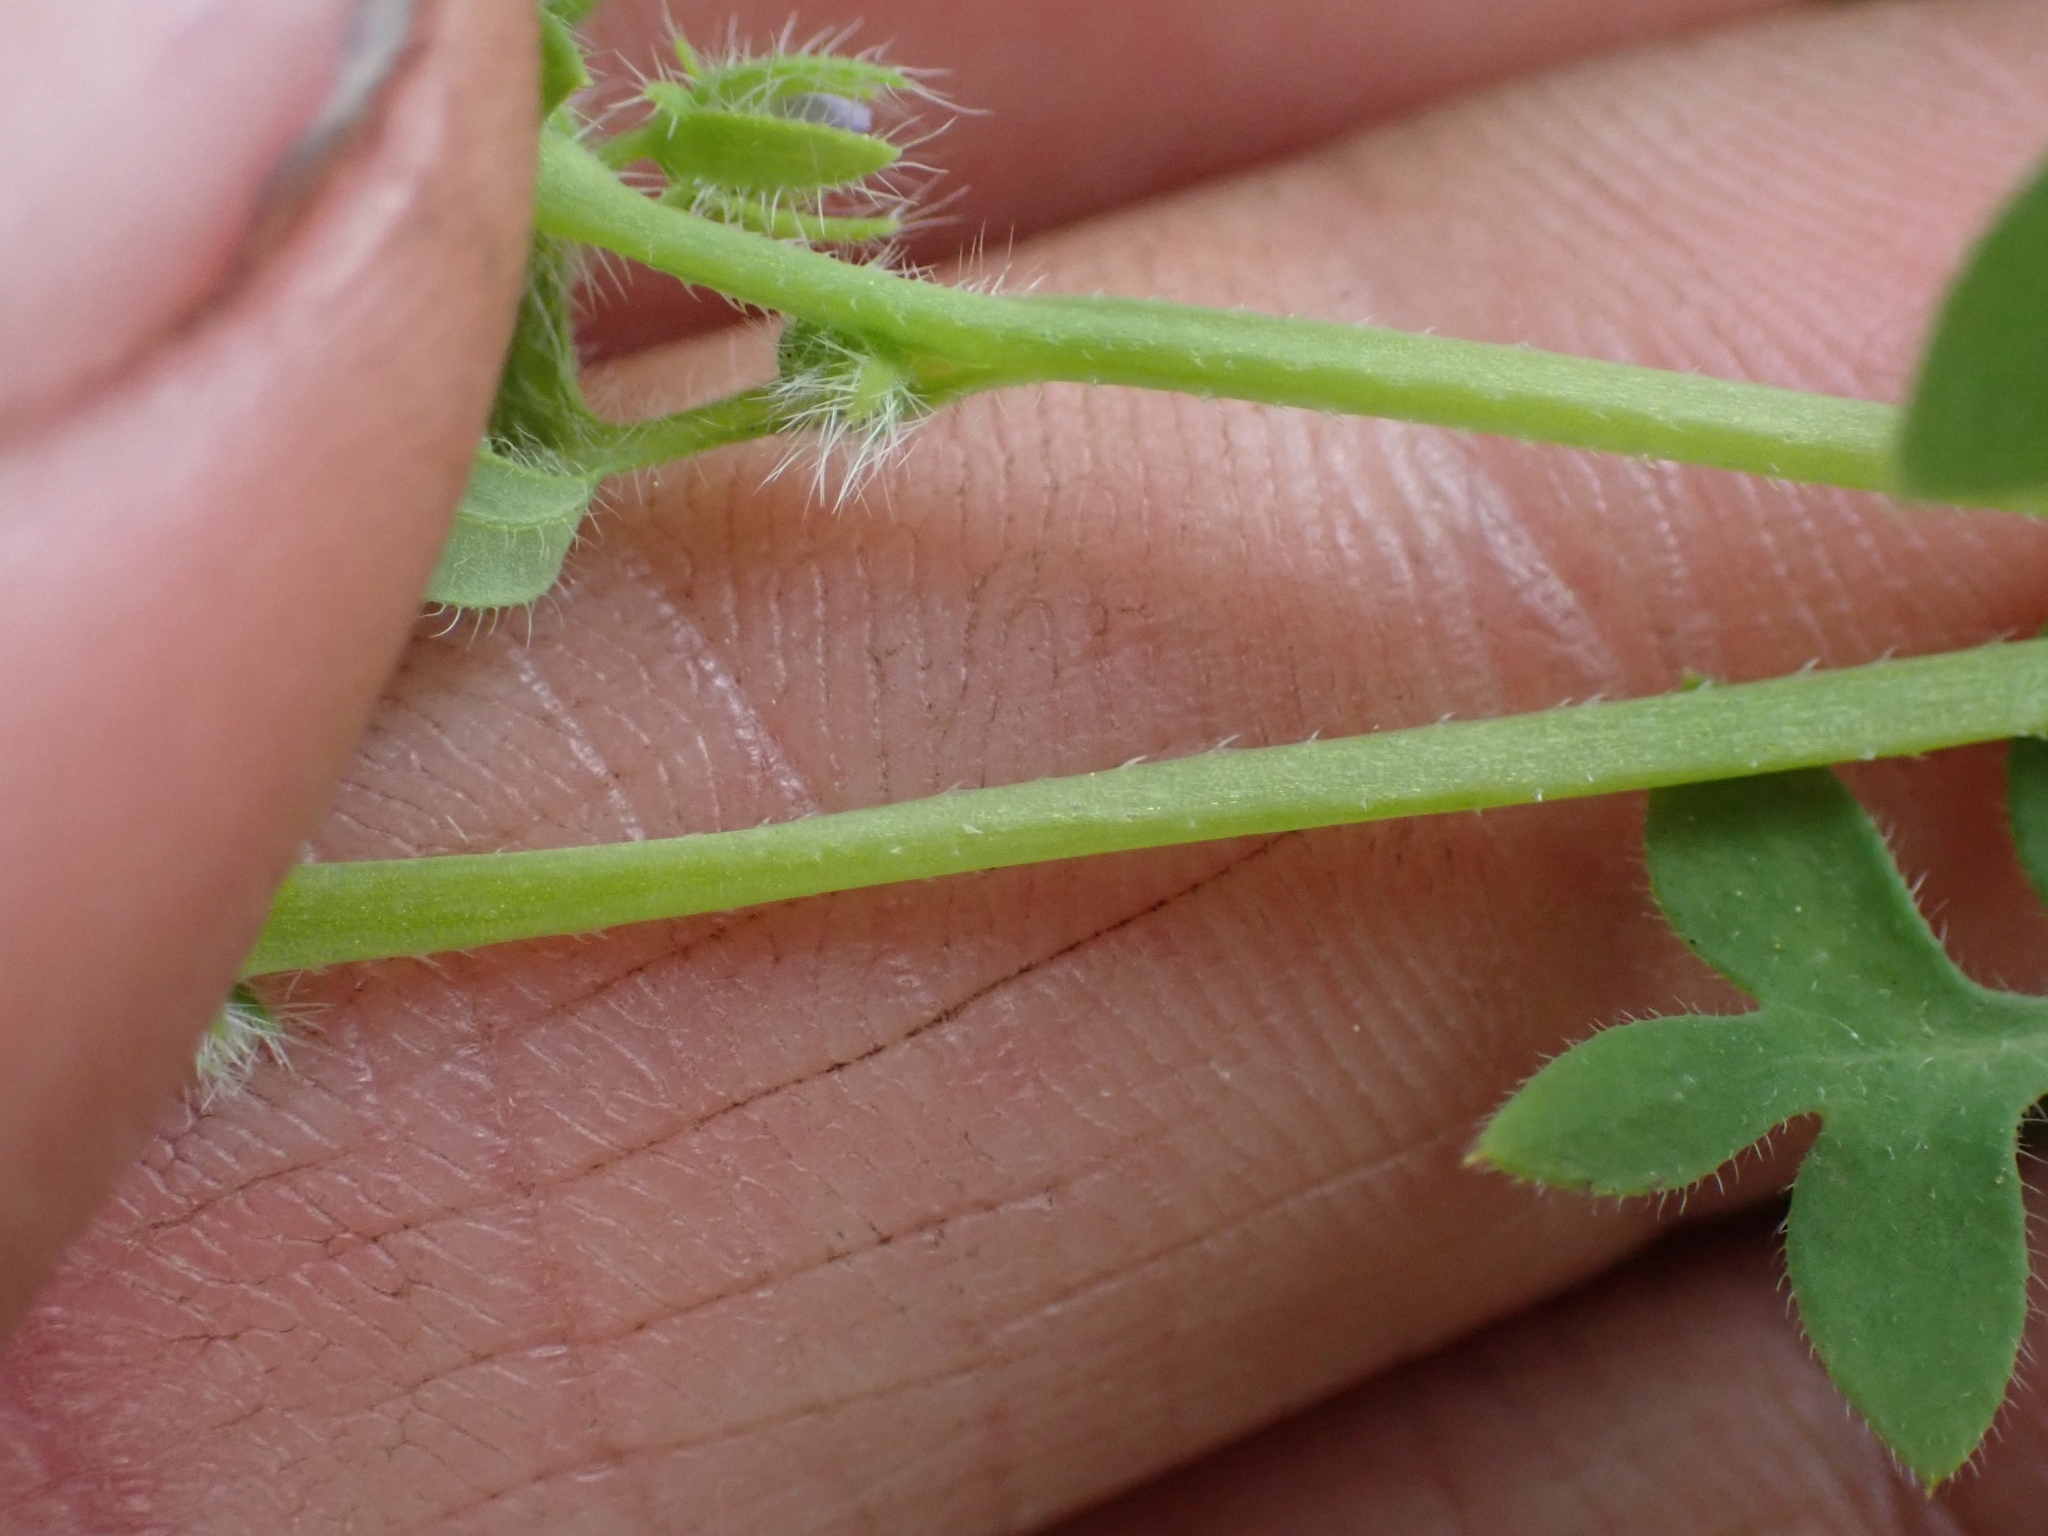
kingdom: Plantae
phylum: Tracheophyta
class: Magnoliopsida
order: Boraginales
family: Hydrophyllaceae
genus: Nemophila
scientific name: Nemophila breviflora
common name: Great basin baby-blue-eyes
